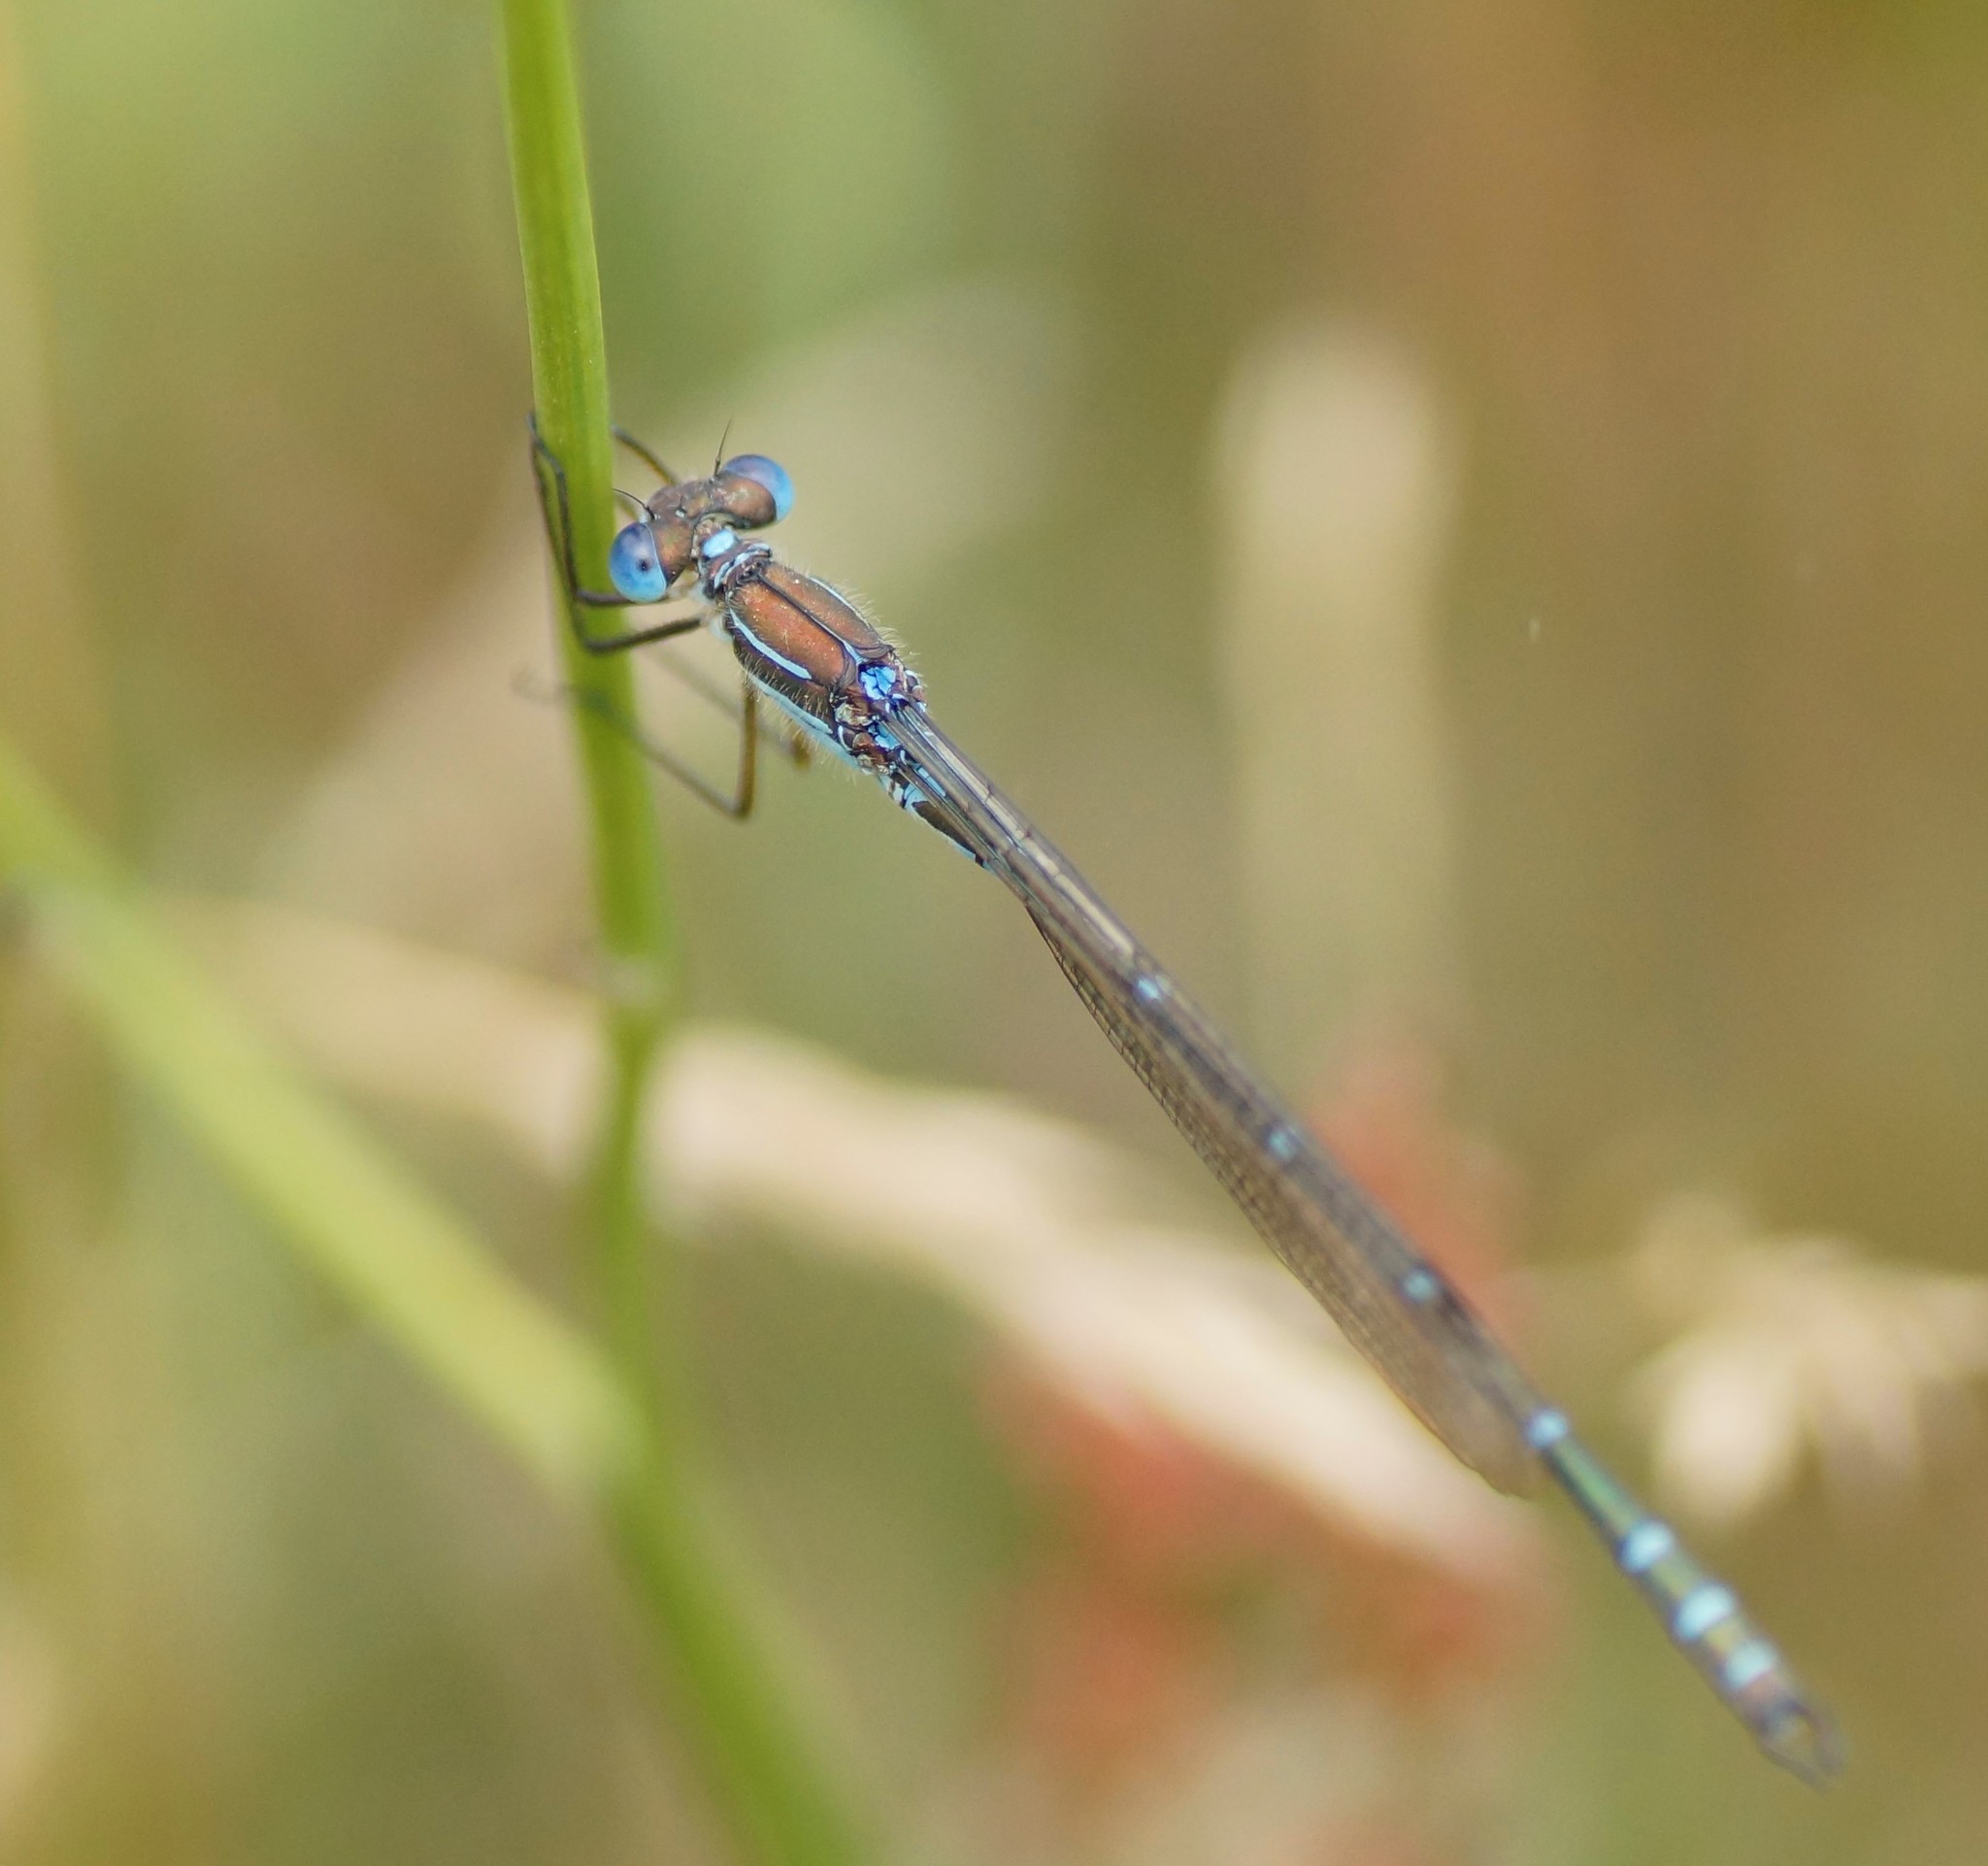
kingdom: Animalia
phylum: Arthropoda
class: Insecta
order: Odonata
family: Lestidae
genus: Austrolestes
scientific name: Austrolestes cingulatus
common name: Metallic ringtail
